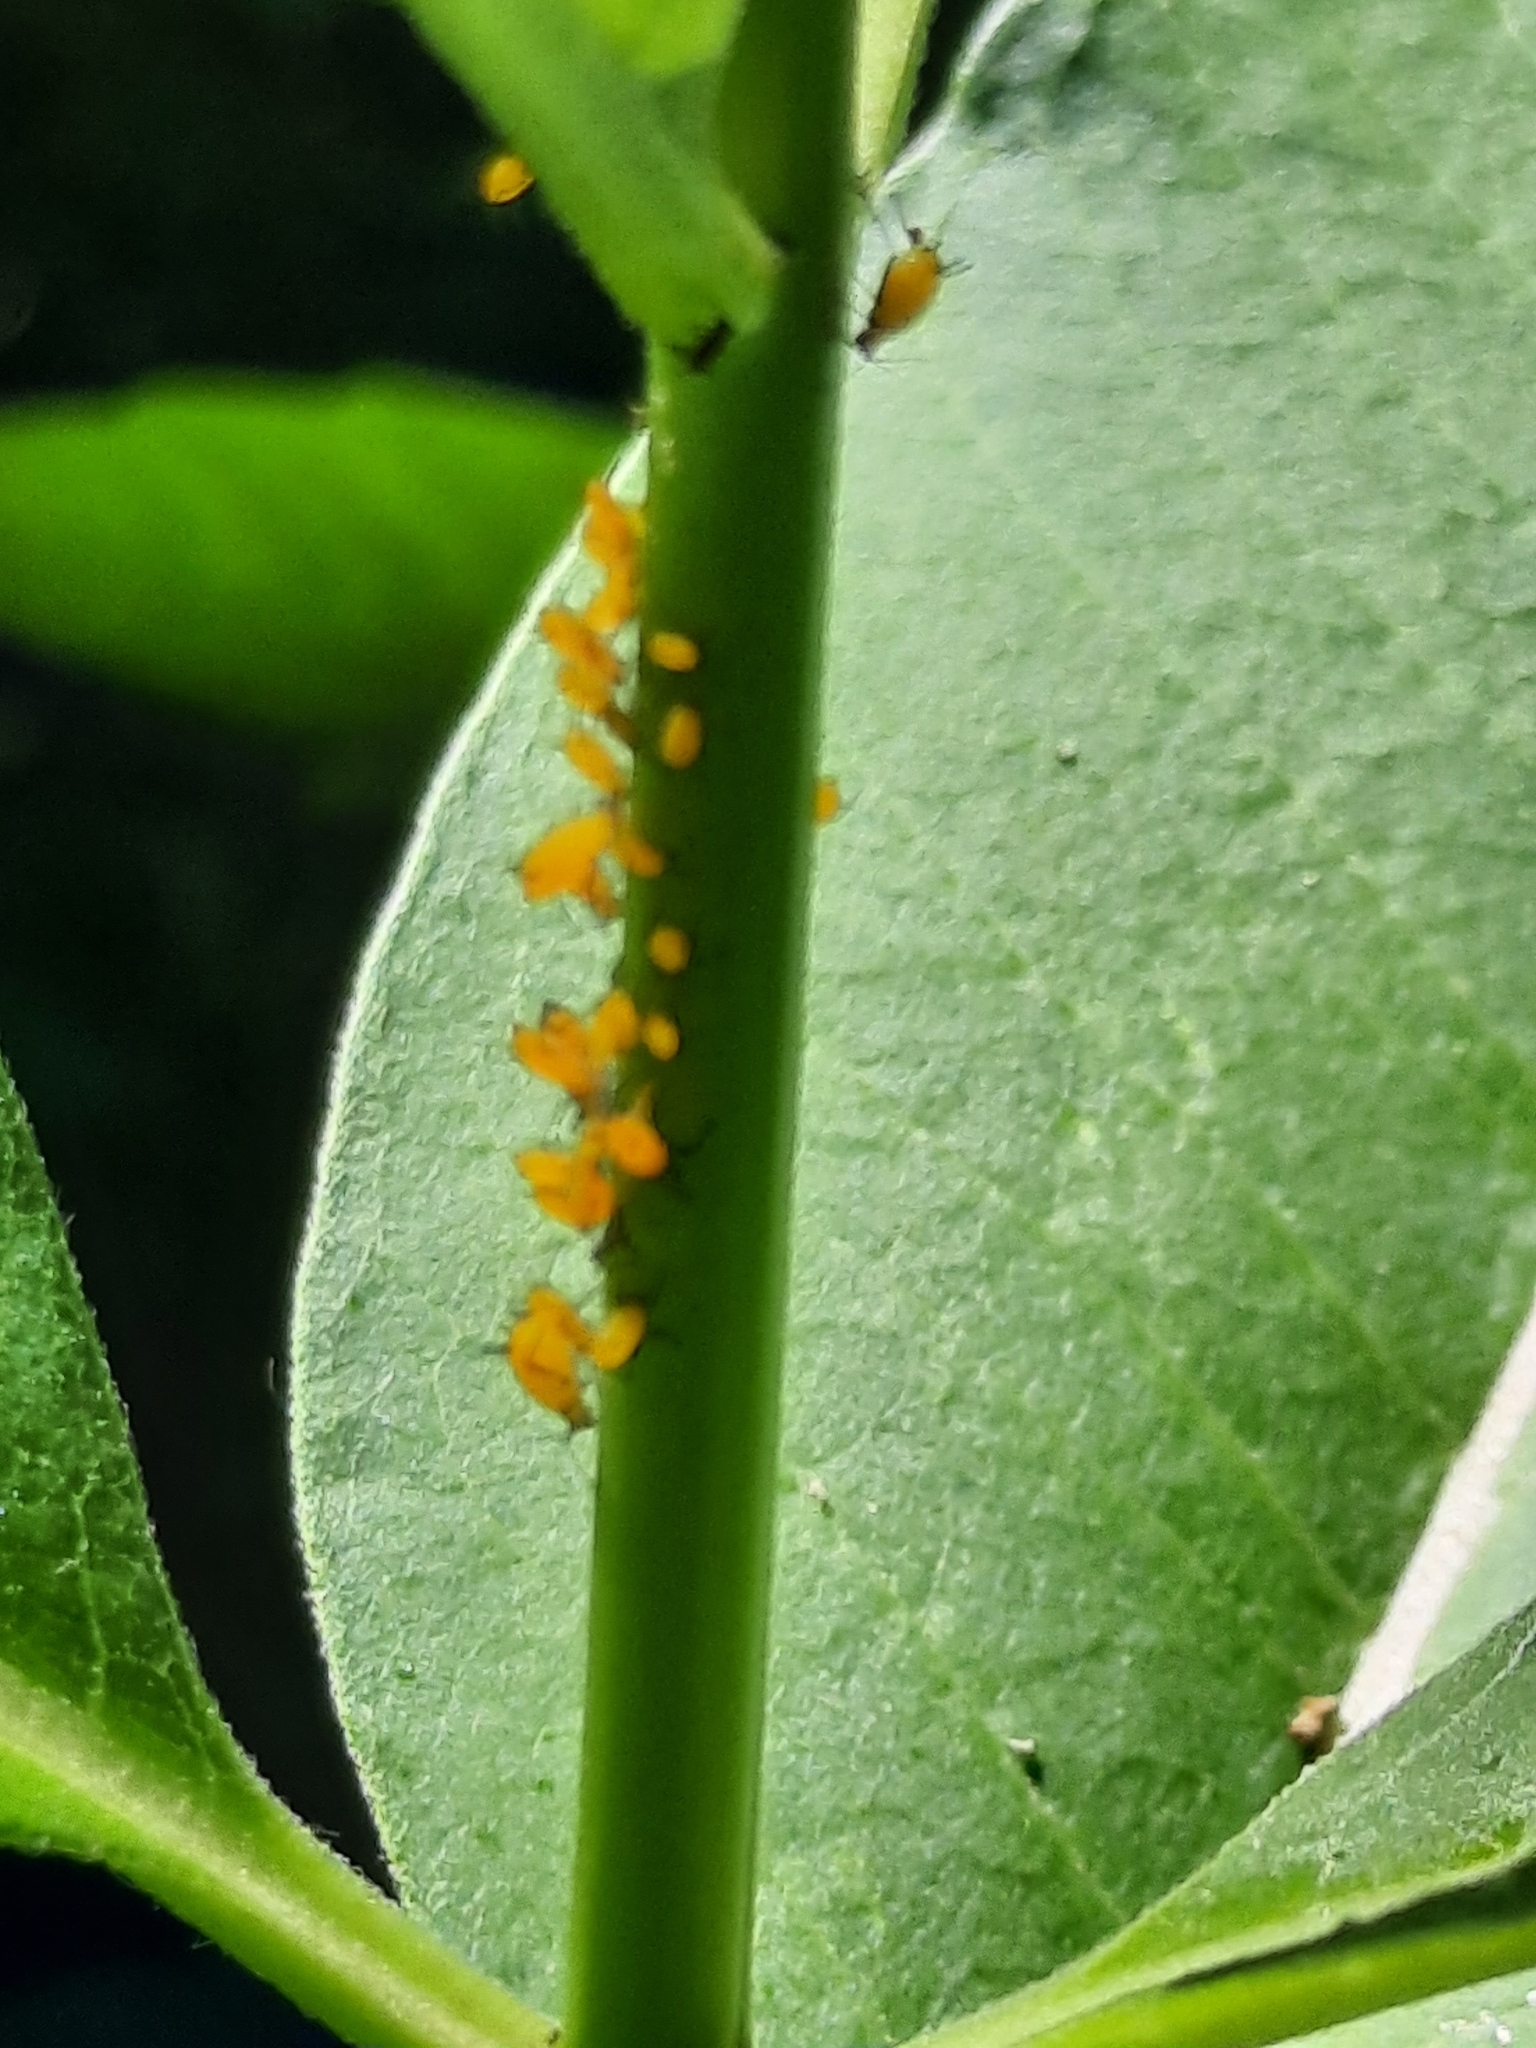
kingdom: Plantae
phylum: Tracheophyta
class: Magnoliopsida
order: Gentianales
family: Apocynaceae
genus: Asclepias
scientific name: Asclepias syriaca
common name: Common milkweed
